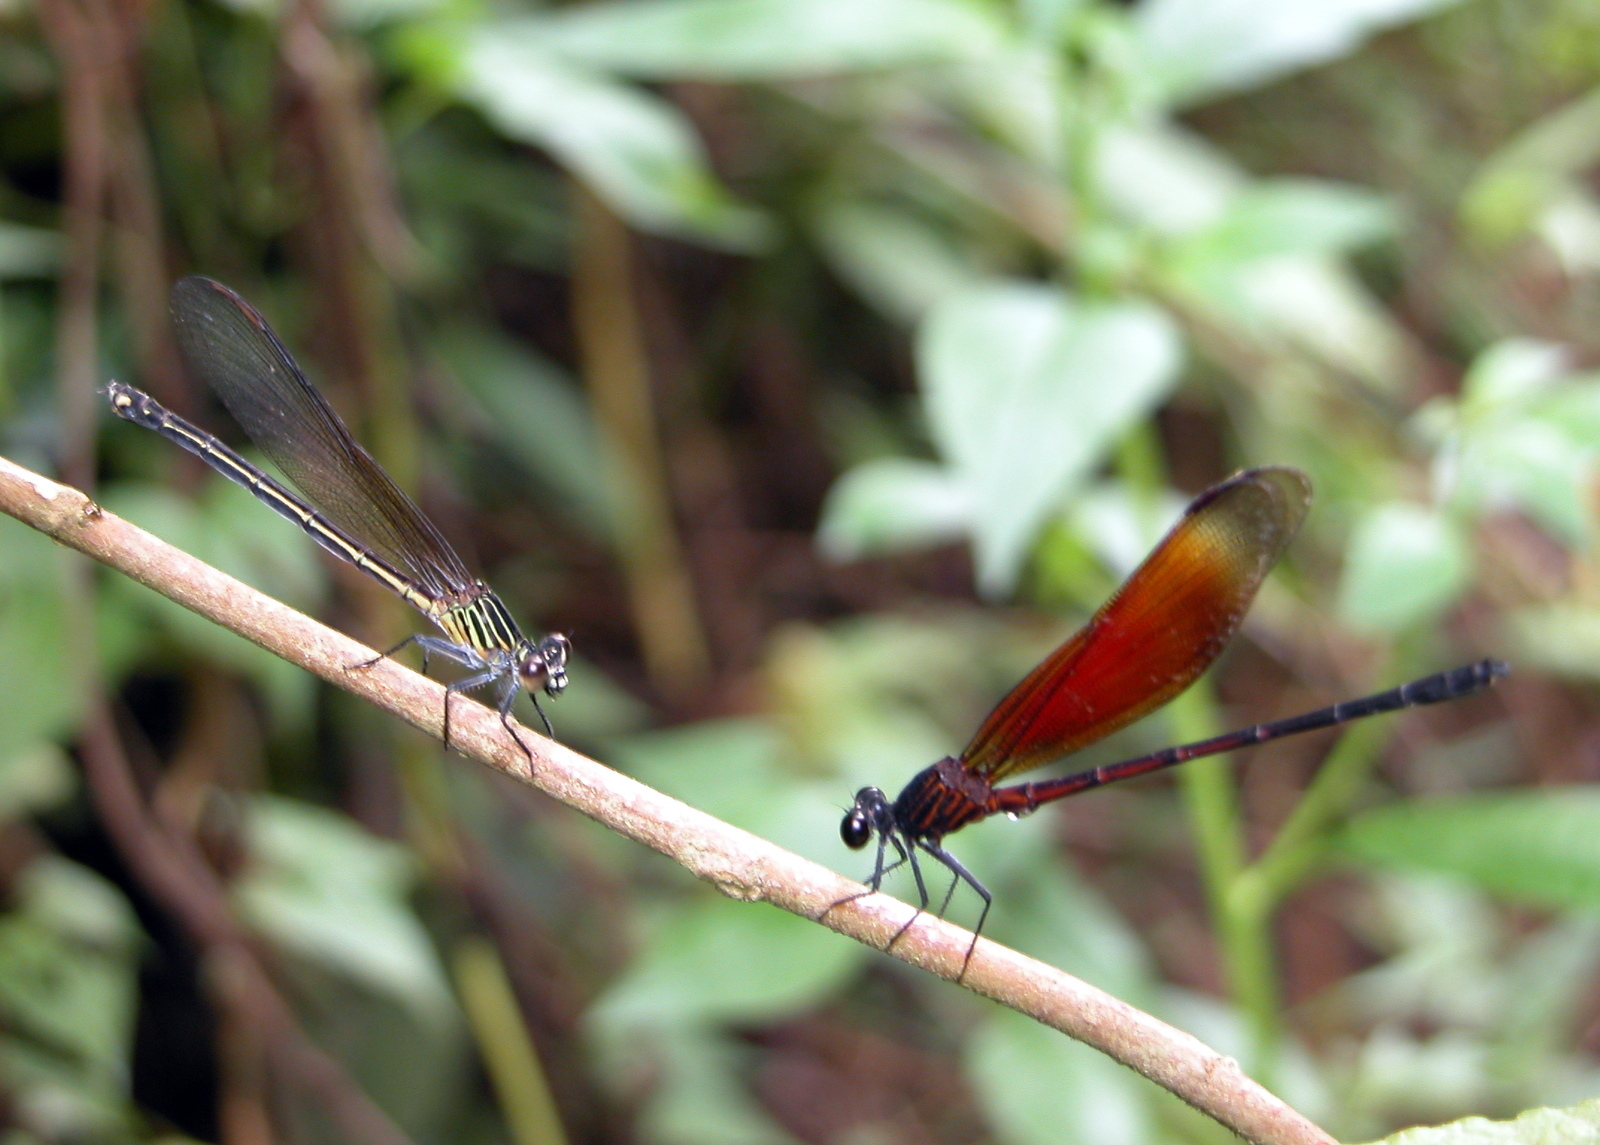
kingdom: Animalia
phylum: Arthropoda
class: Insecta
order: Odonata
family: Euphaeidae
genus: Euphaea
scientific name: Euphaea ochracea
